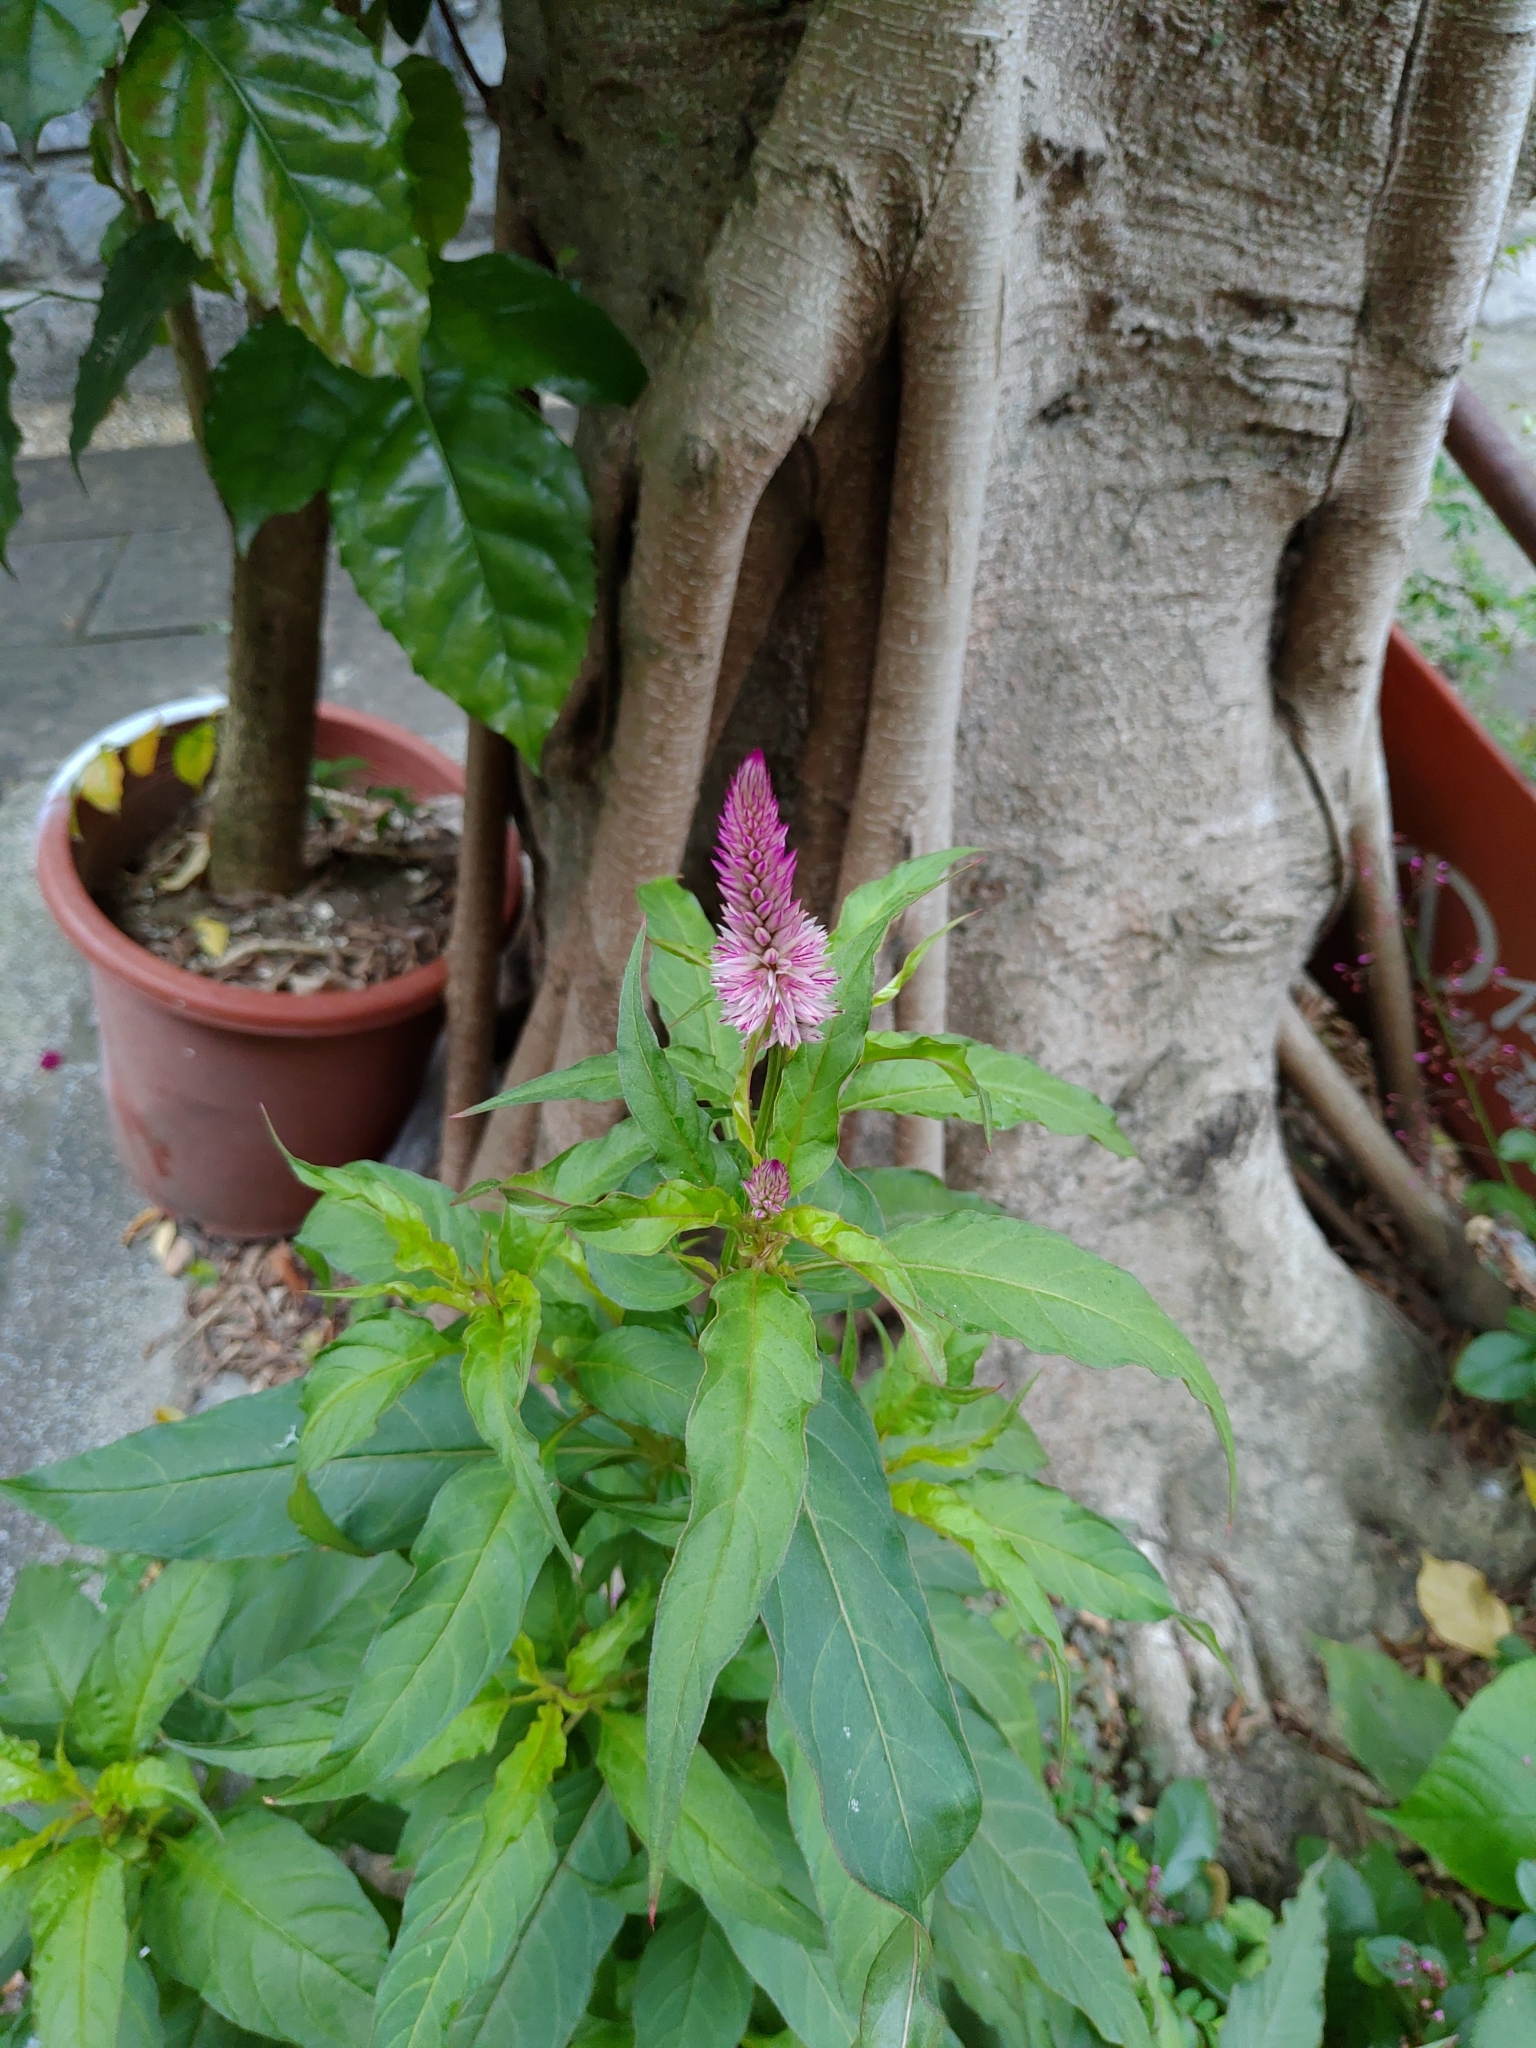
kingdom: Plantae
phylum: Tracheophyta
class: Magnoliopsida
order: Caryophyllales
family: Amaranthaceae
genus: Celosia
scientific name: Celosia argentea
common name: Feather cockscomb
